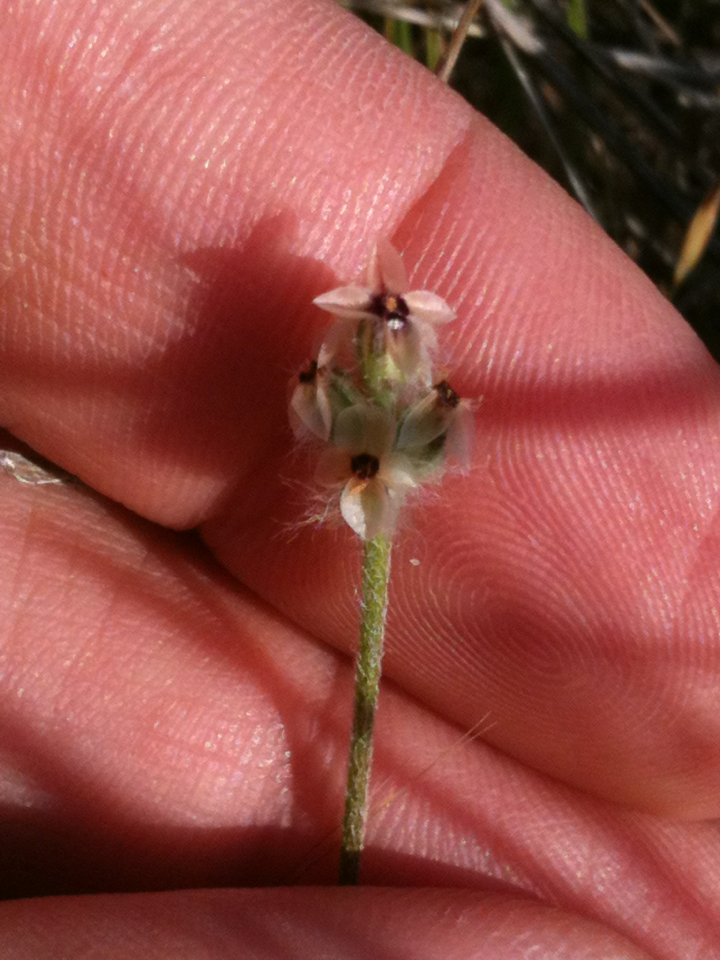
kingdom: Plantae
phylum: Tracheophyta
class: Magnoliopsida
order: Lamiales
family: Plantaginaceae
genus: Plantago
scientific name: Plantago erecta
